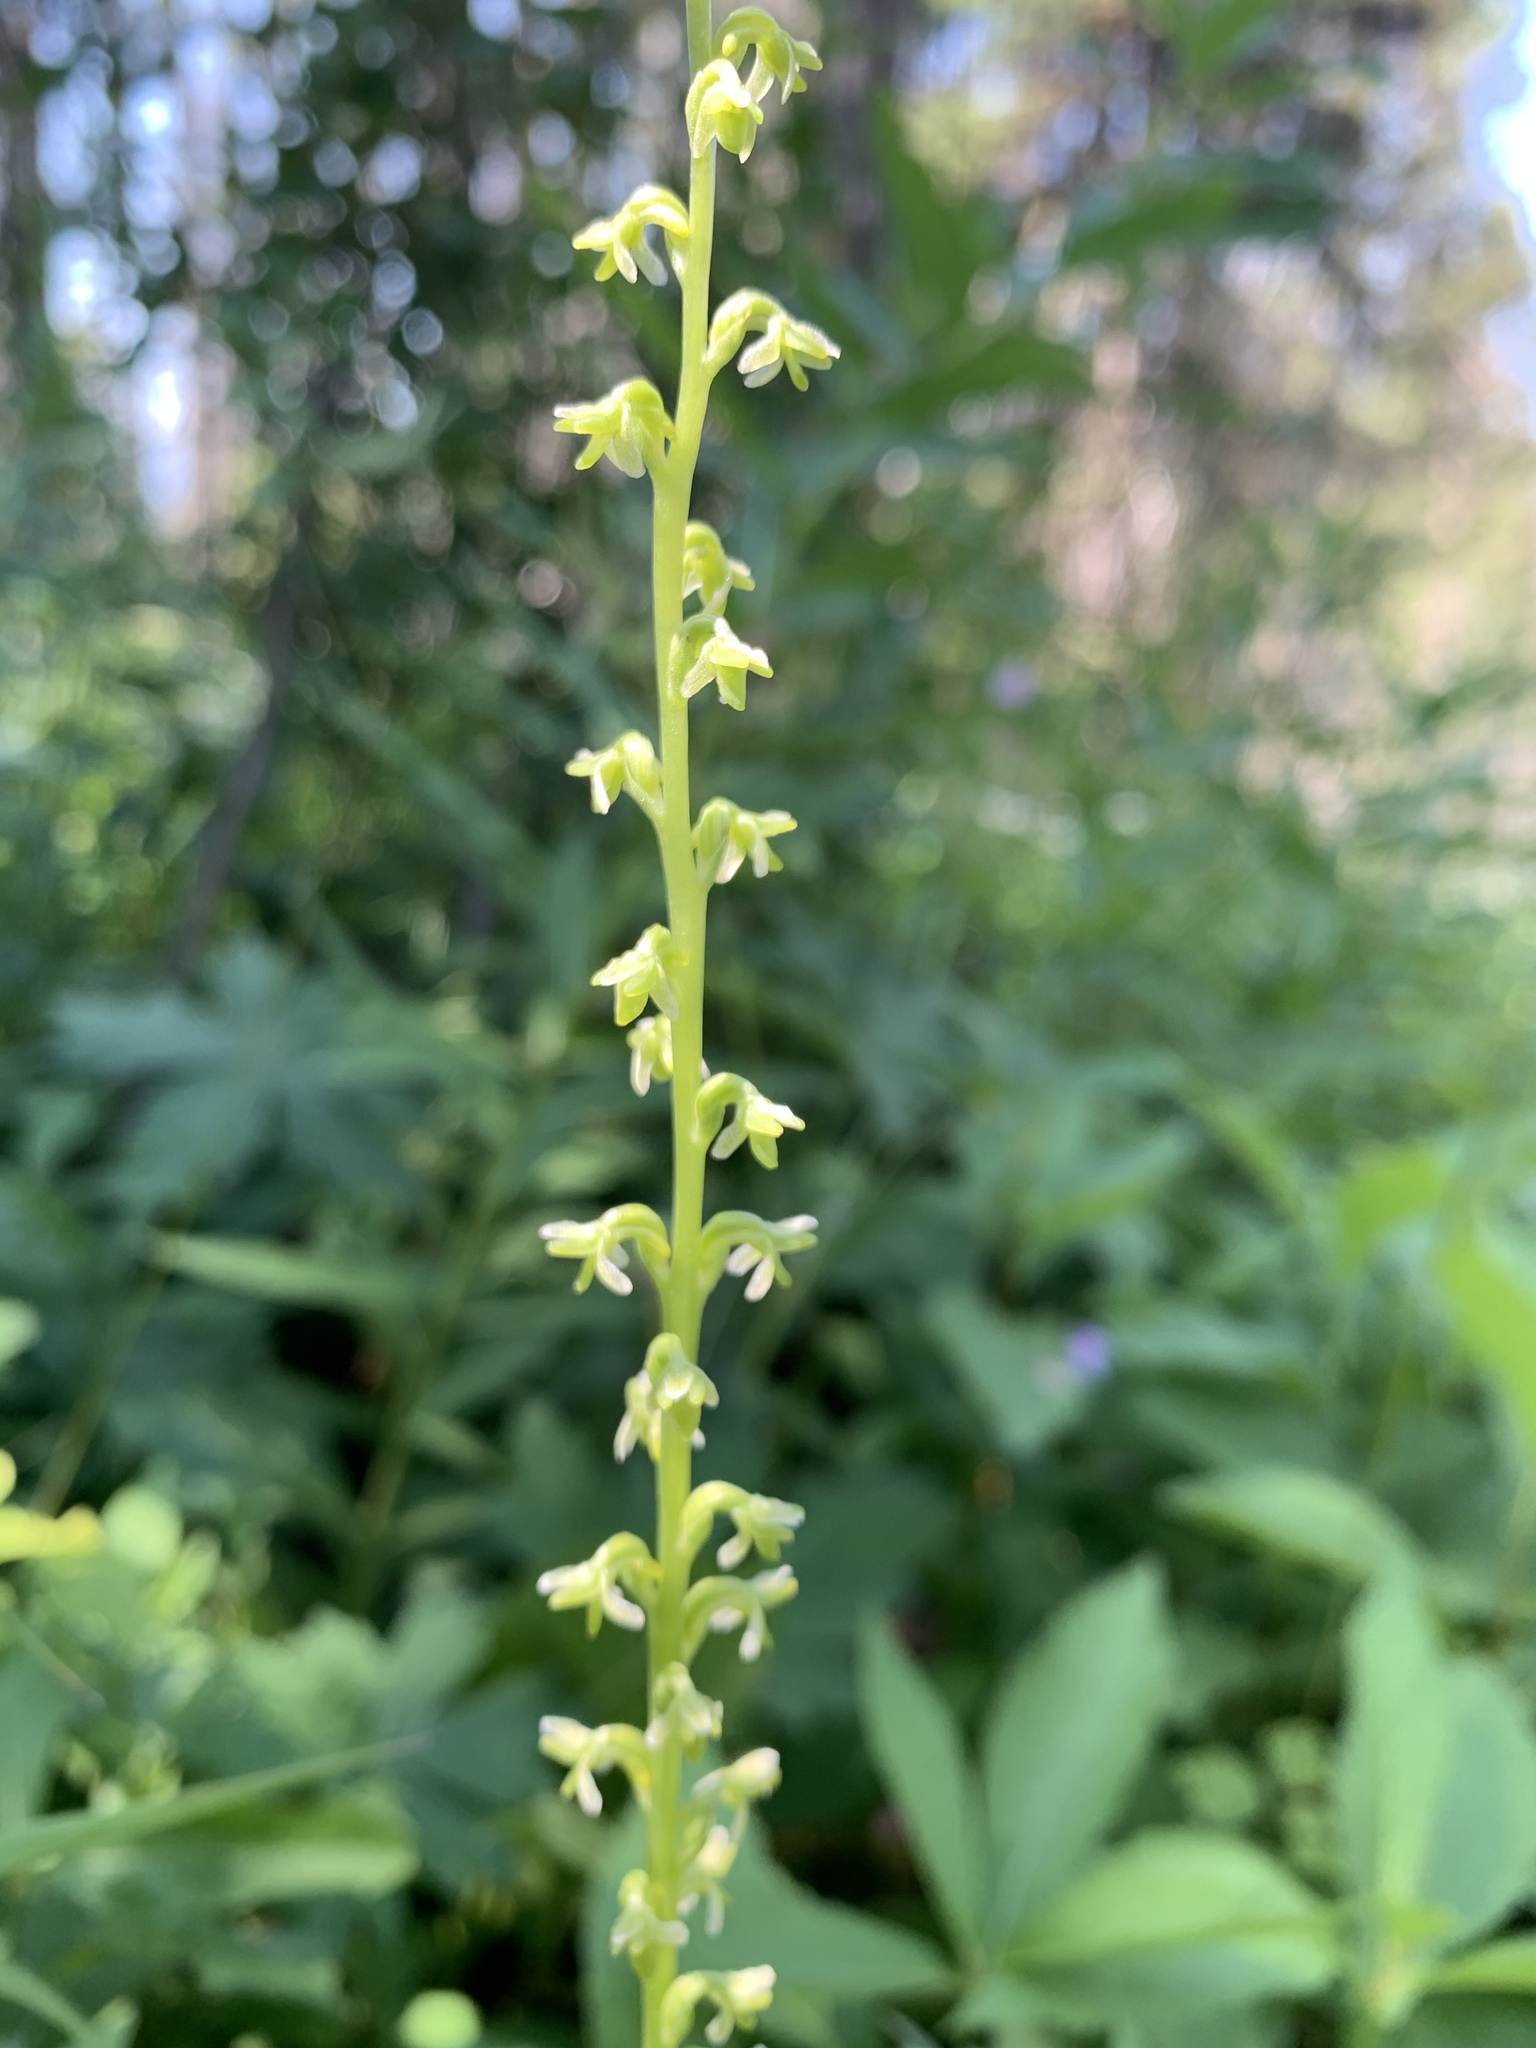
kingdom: Plantae
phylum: Tracheophyta
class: Liliopsida
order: Asparagales
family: Orchidaceae
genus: Platanthera
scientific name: Platanthera unalascensis
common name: Alaska bog orchid
